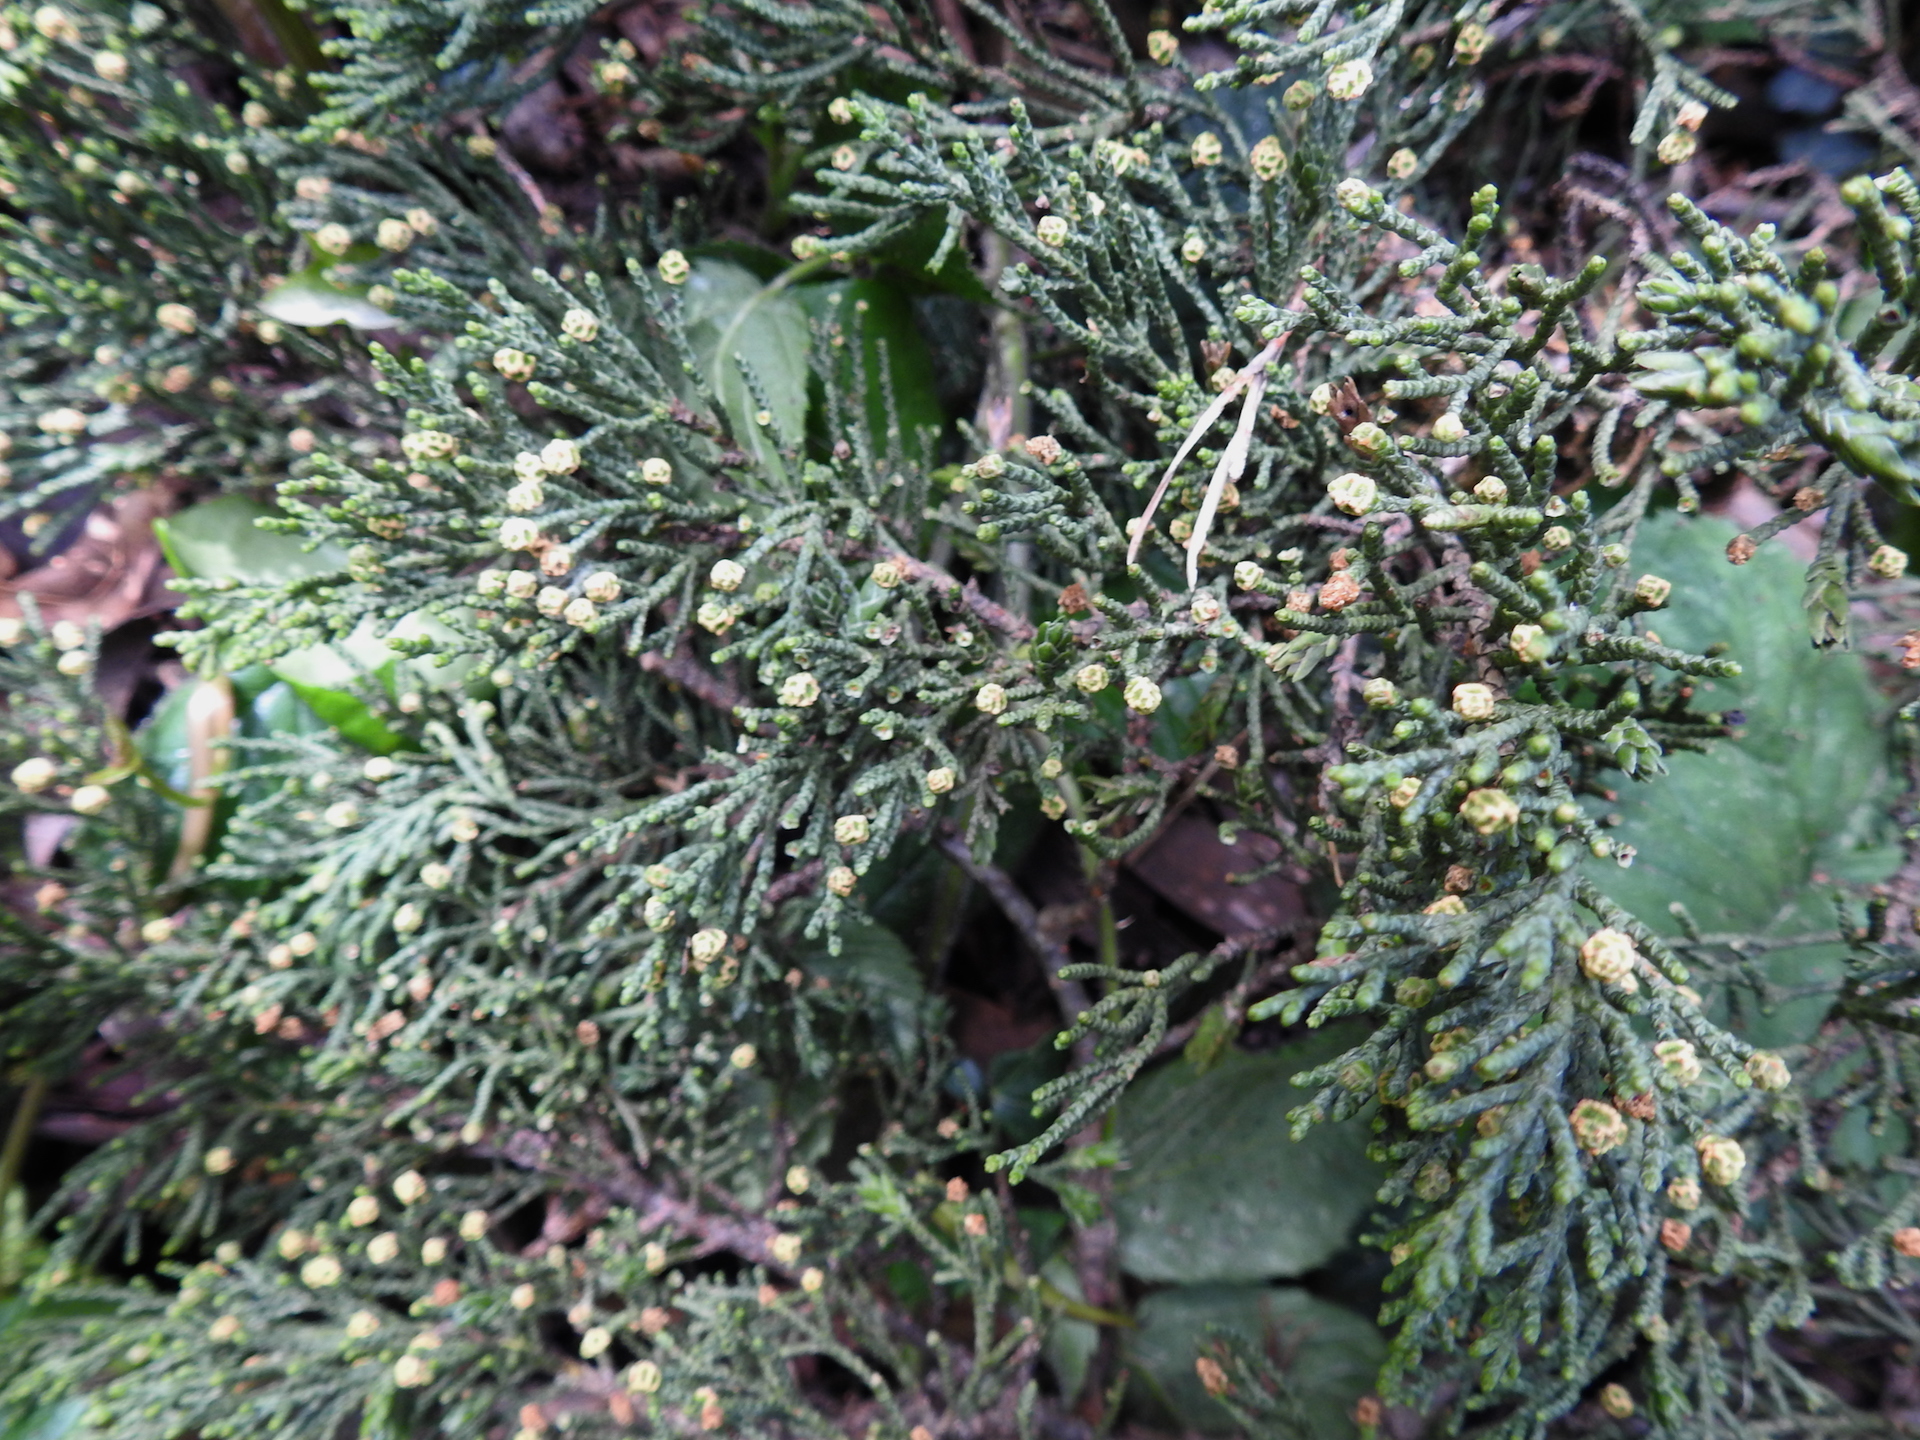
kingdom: Plantae
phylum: Tracheophyta
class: Pinopsida
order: Pinales
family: Cupressaceae
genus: Cupressus
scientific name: Cupressus macrocarpa
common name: Monterey cypress
